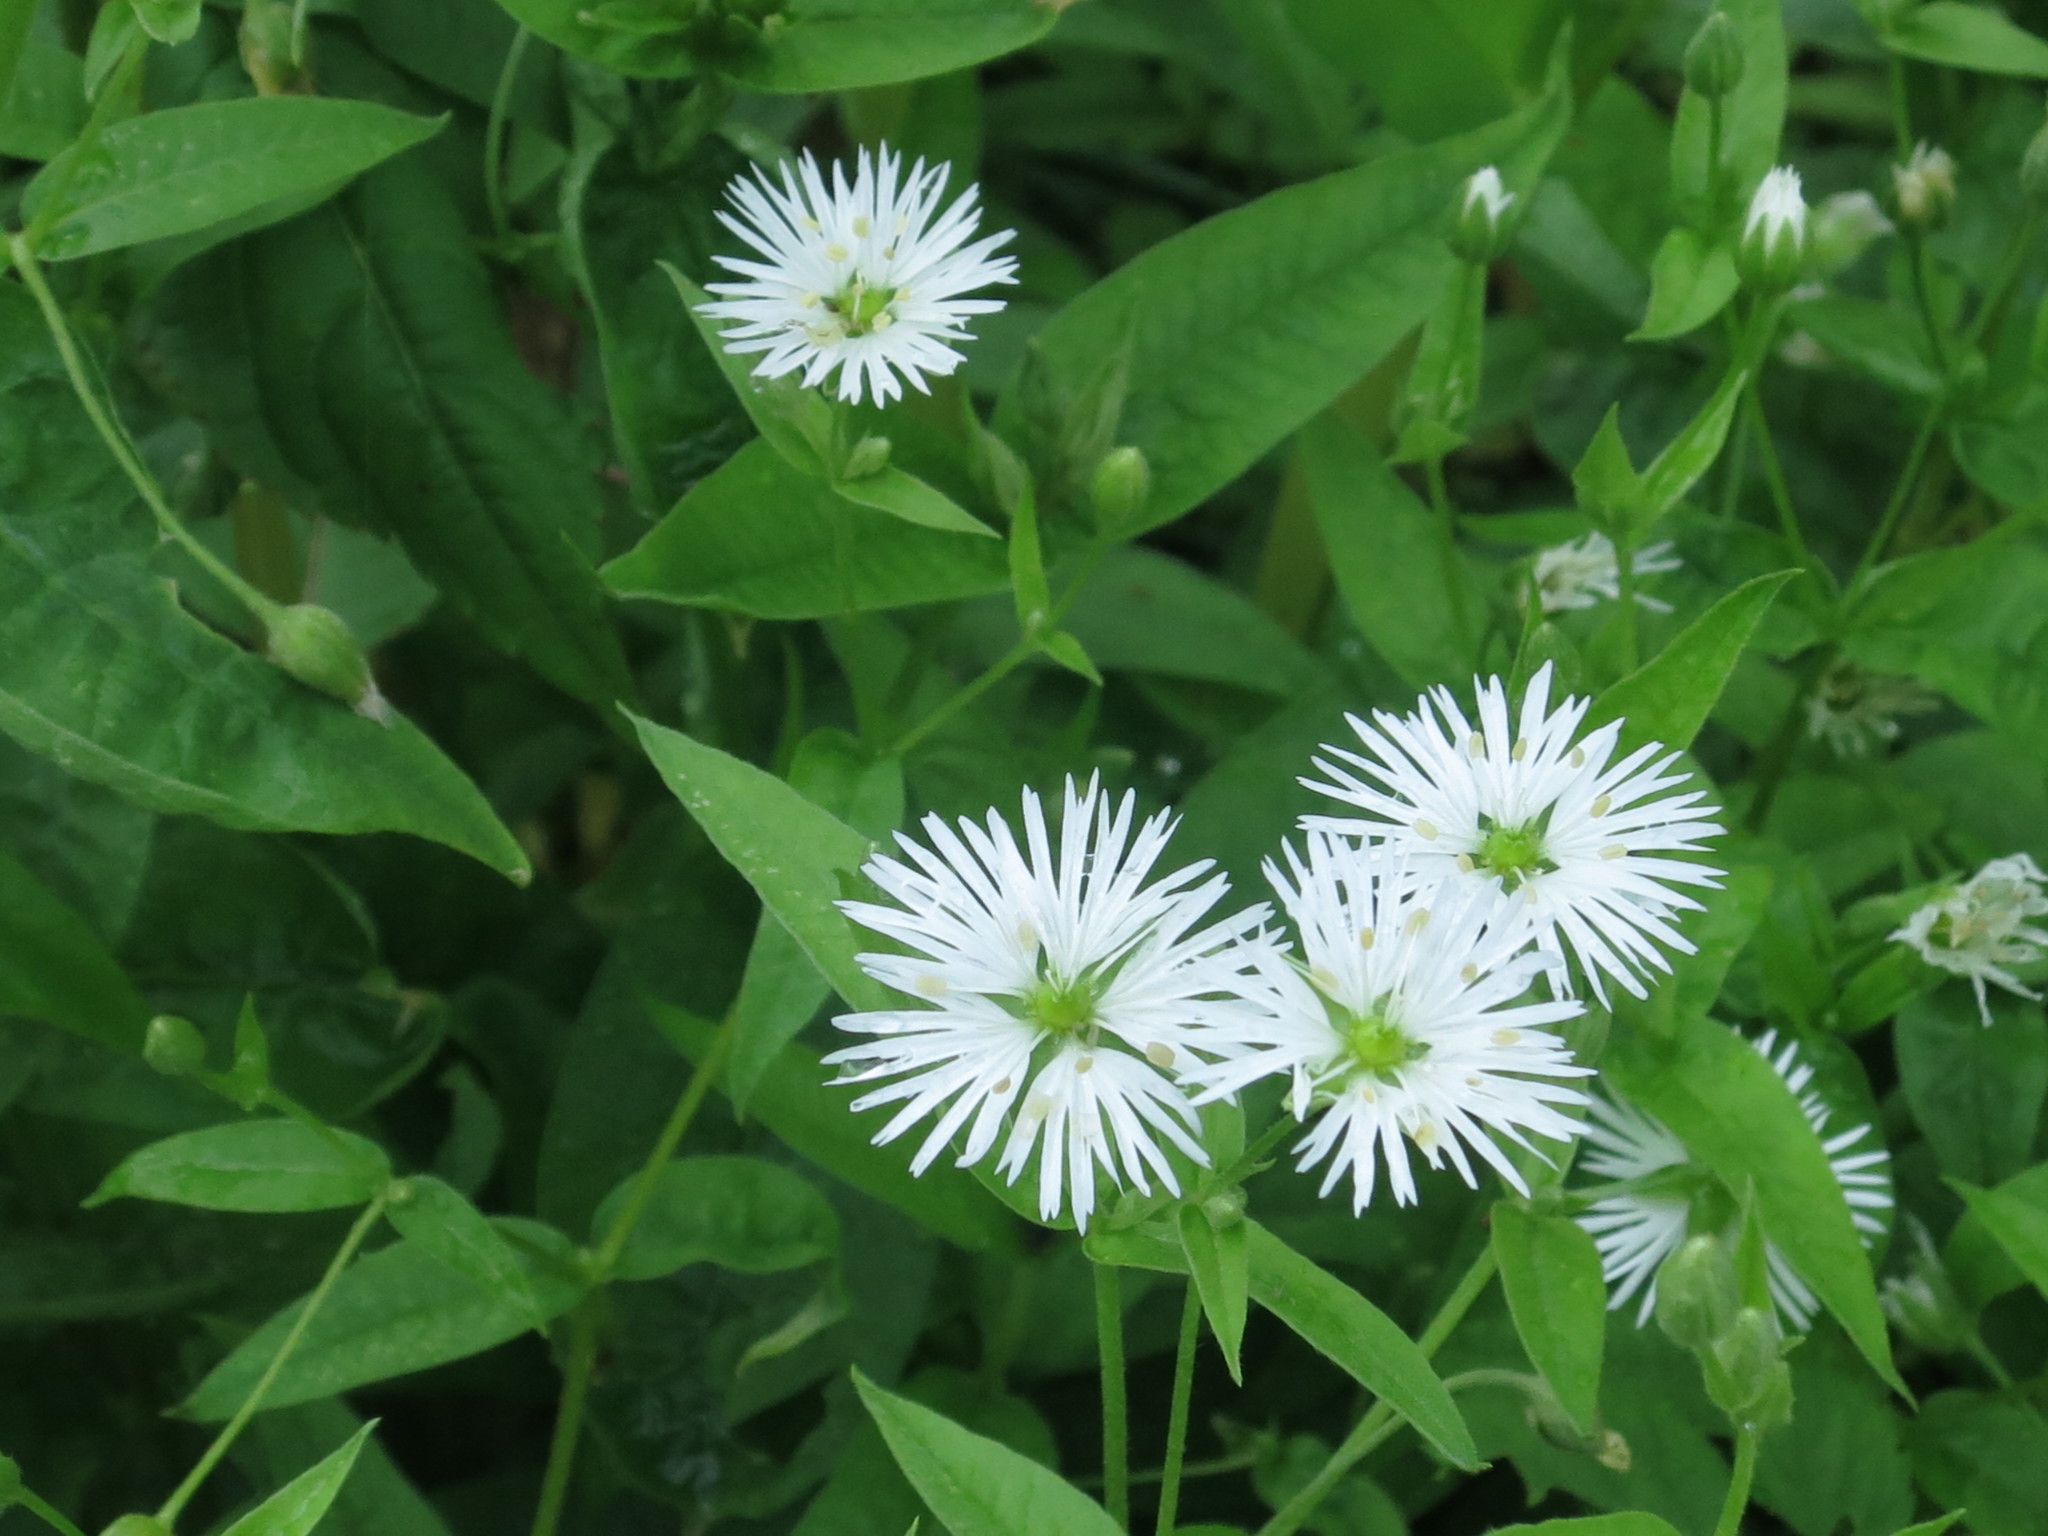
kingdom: Plantae
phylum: Tracheophyta
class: Magnoliopsida
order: Caryophyllales
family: Caryophyllaceae
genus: Stellaria
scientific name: Stellaria radians
